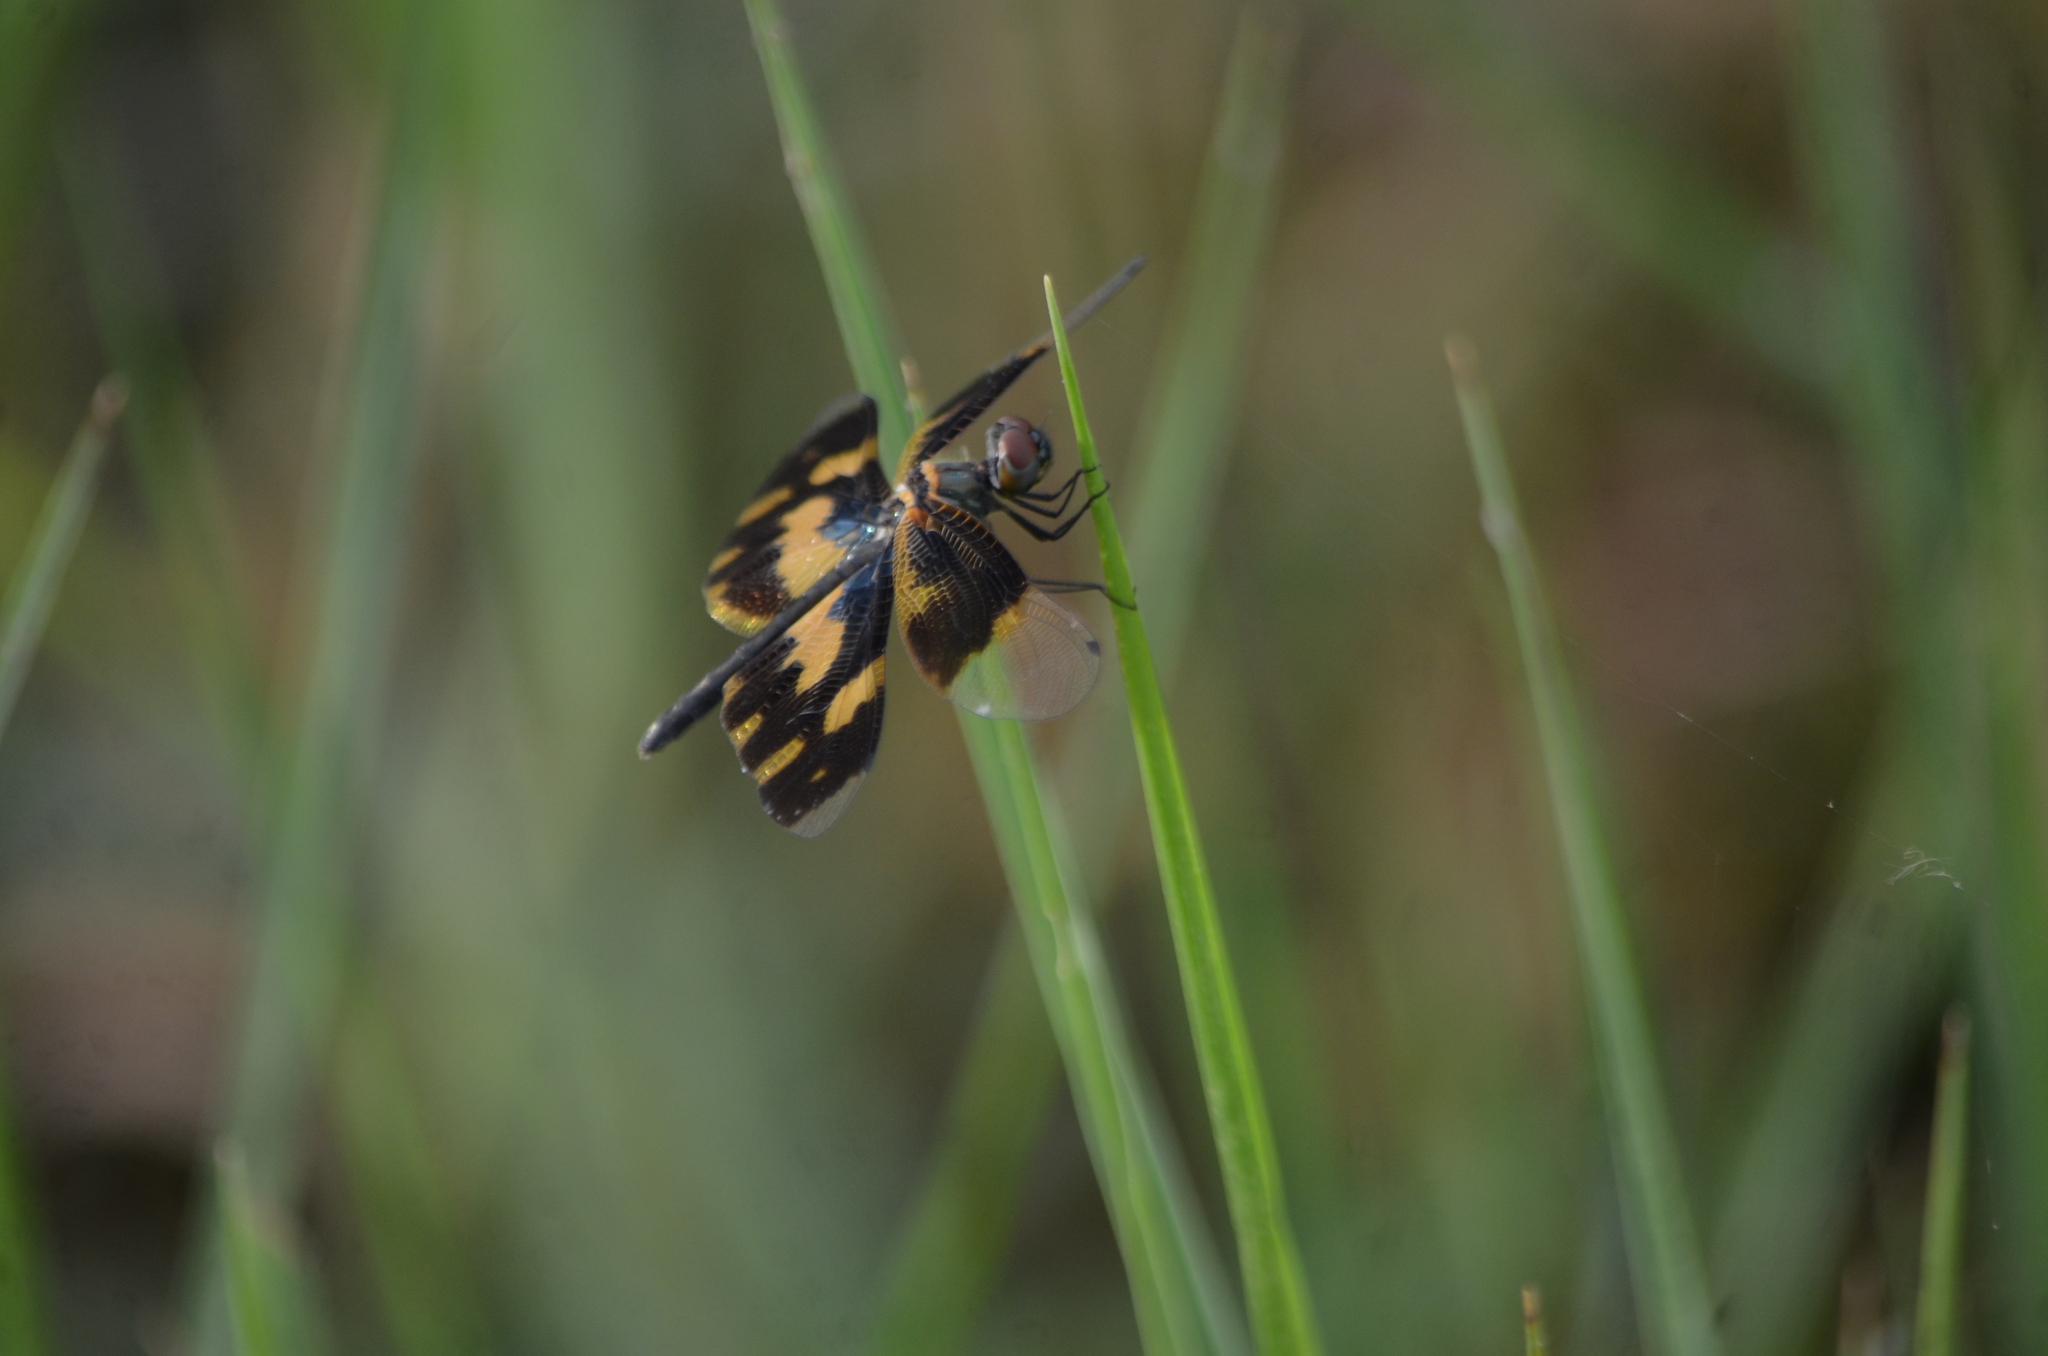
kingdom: Animalia
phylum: Arthropoda
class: Insecta
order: Odonata
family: Libellulidae
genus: Rhyothemis
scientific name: Rhyothemis variegata
